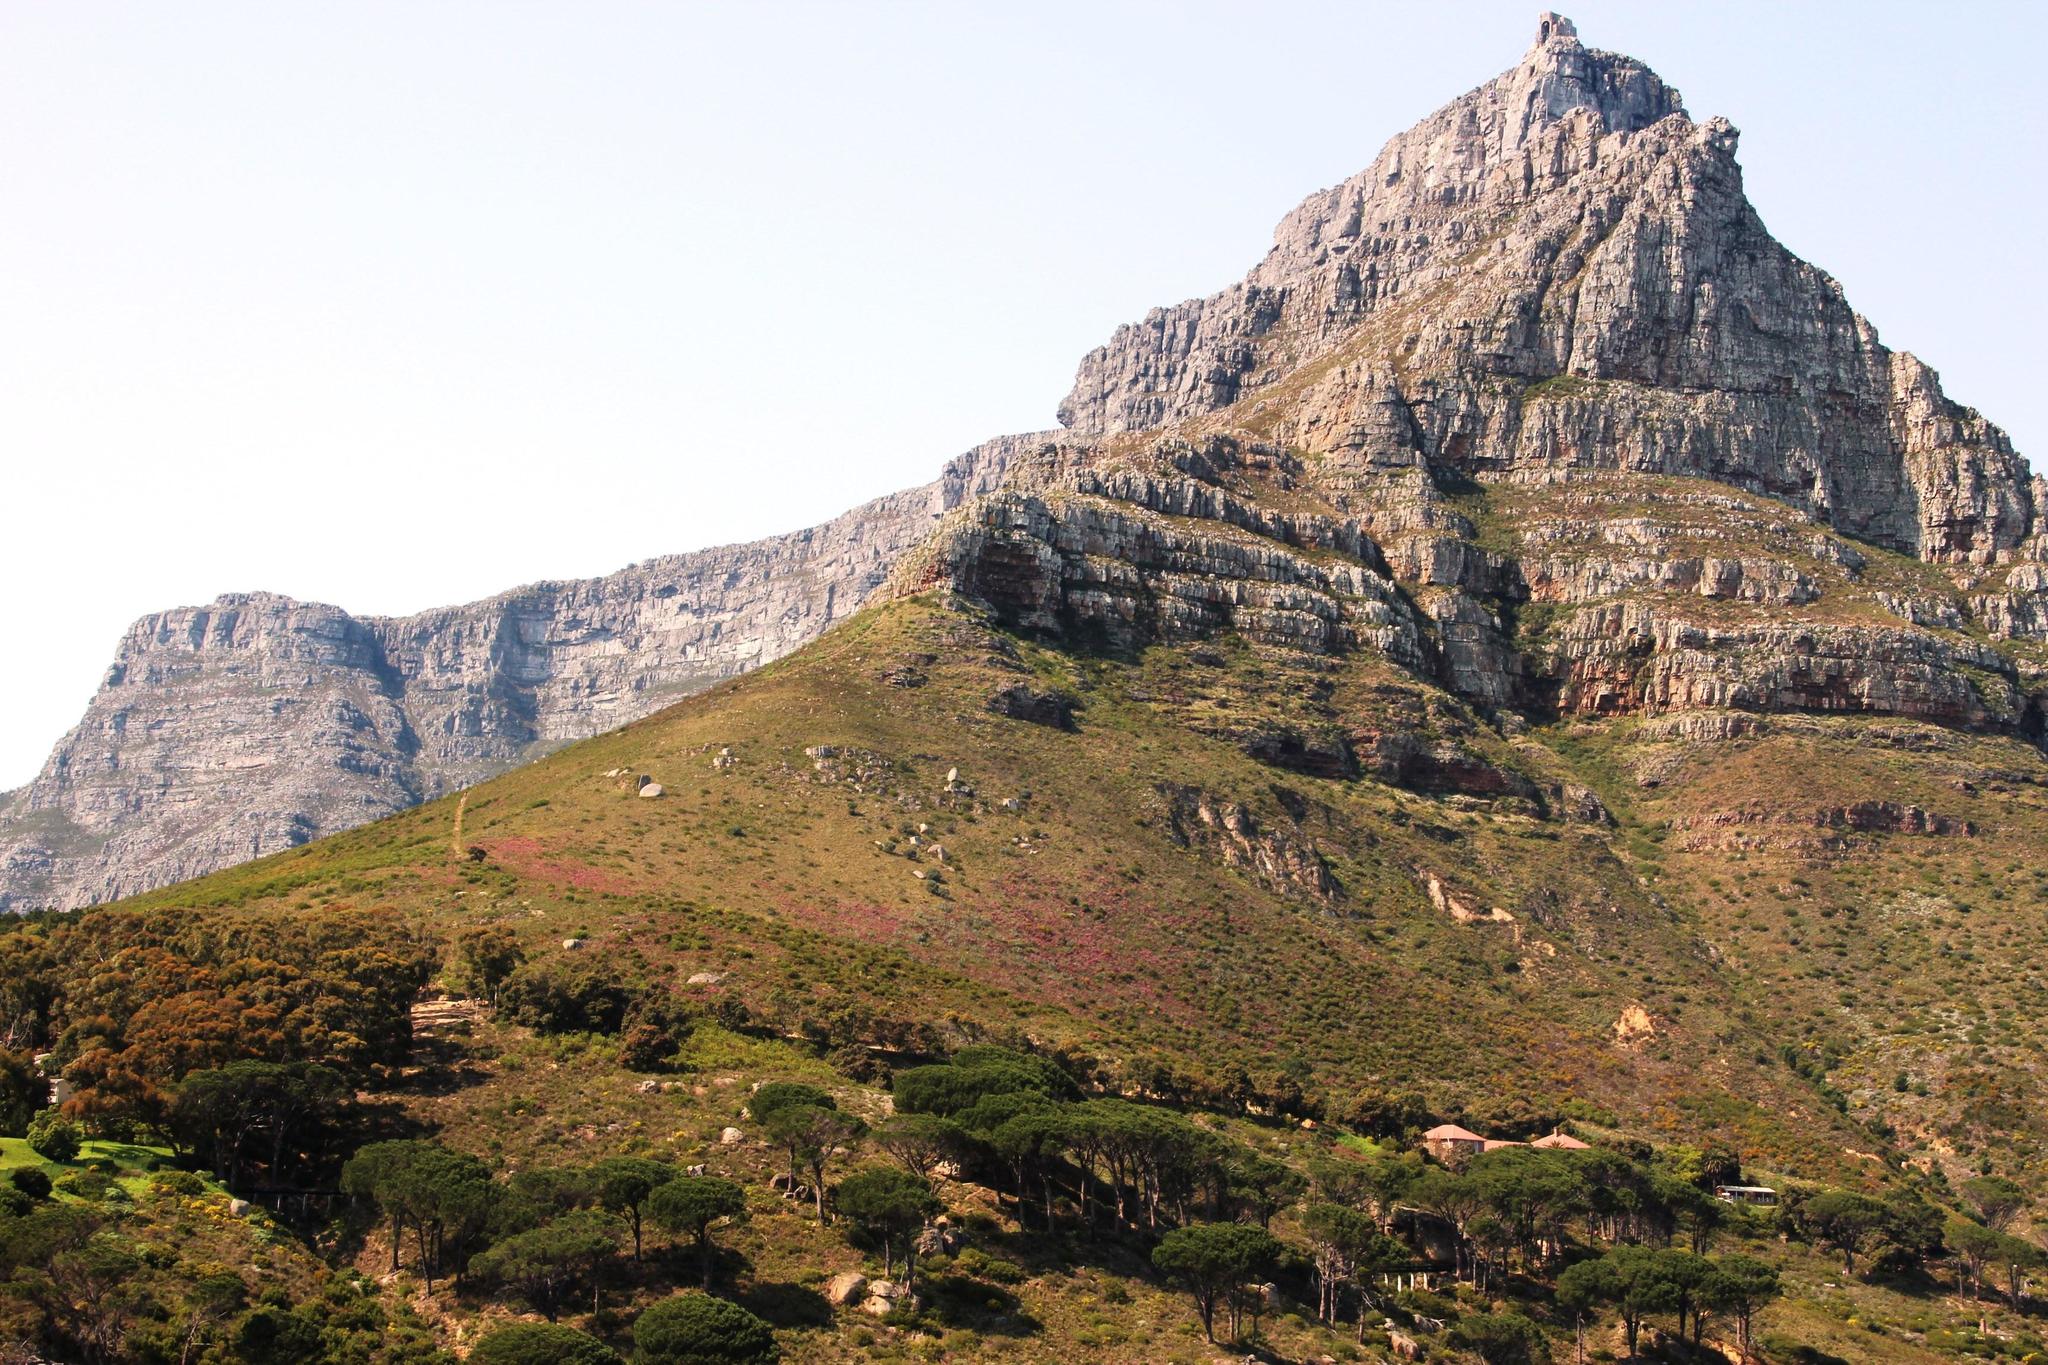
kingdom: Plantae
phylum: Tracheophyta
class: Magnoliopsida
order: Ericales
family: Ericaceae
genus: Erica
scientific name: Erica baccans
